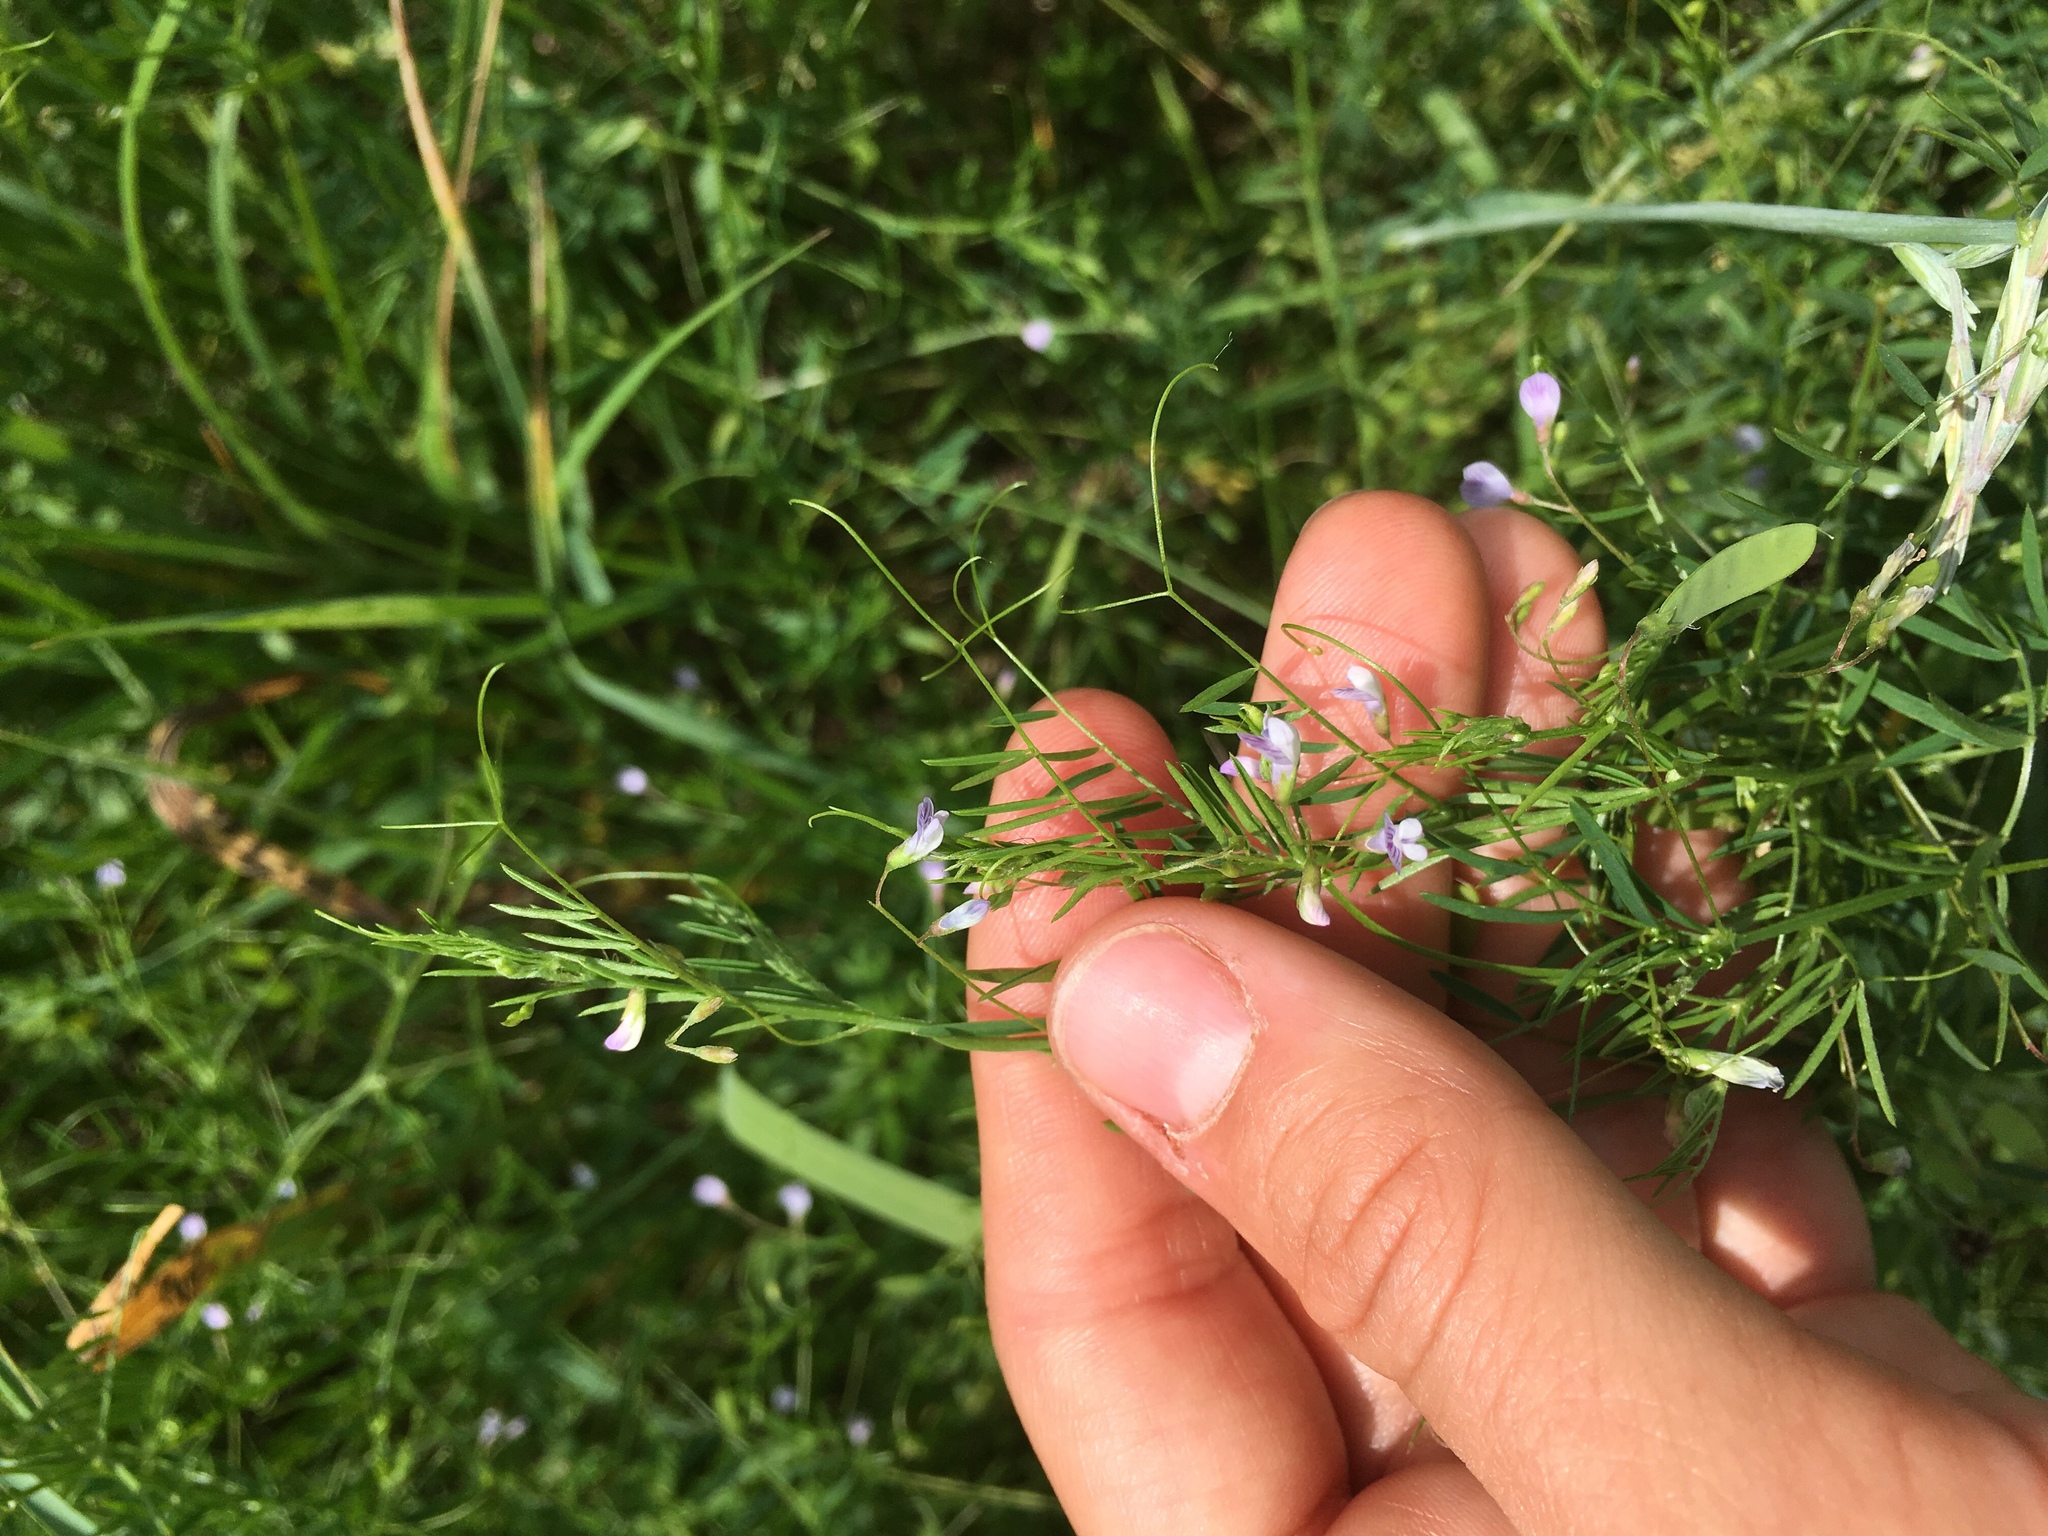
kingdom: Plantae
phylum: Tracheophyta
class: Magnoliopsida
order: Fabales
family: Fabaceae
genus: Vicia
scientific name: Vicia tetrasperma
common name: Smooth tare
